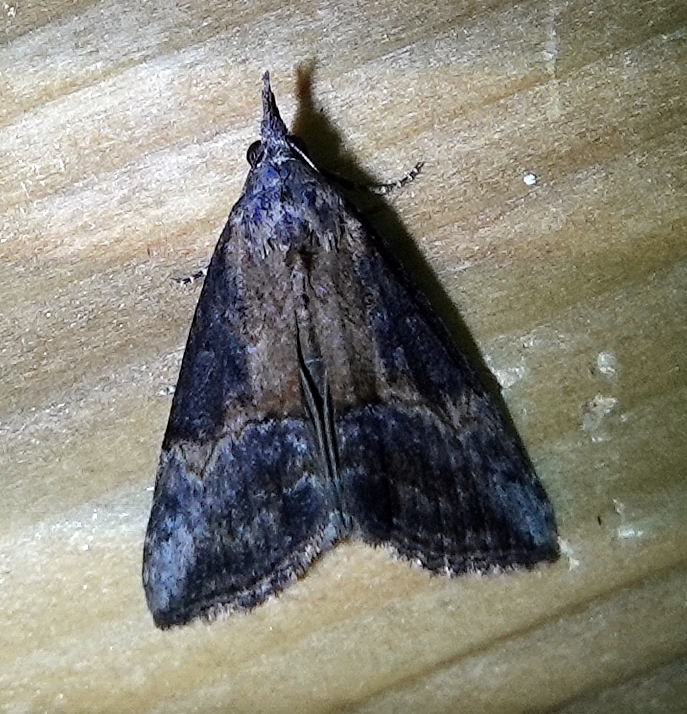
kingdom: Animalia
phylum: Arthropoda
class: Insecta
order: Lepidoptera
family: Erebidae
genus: Hypena
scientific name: Hypena scabra
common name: Green cloverworm
